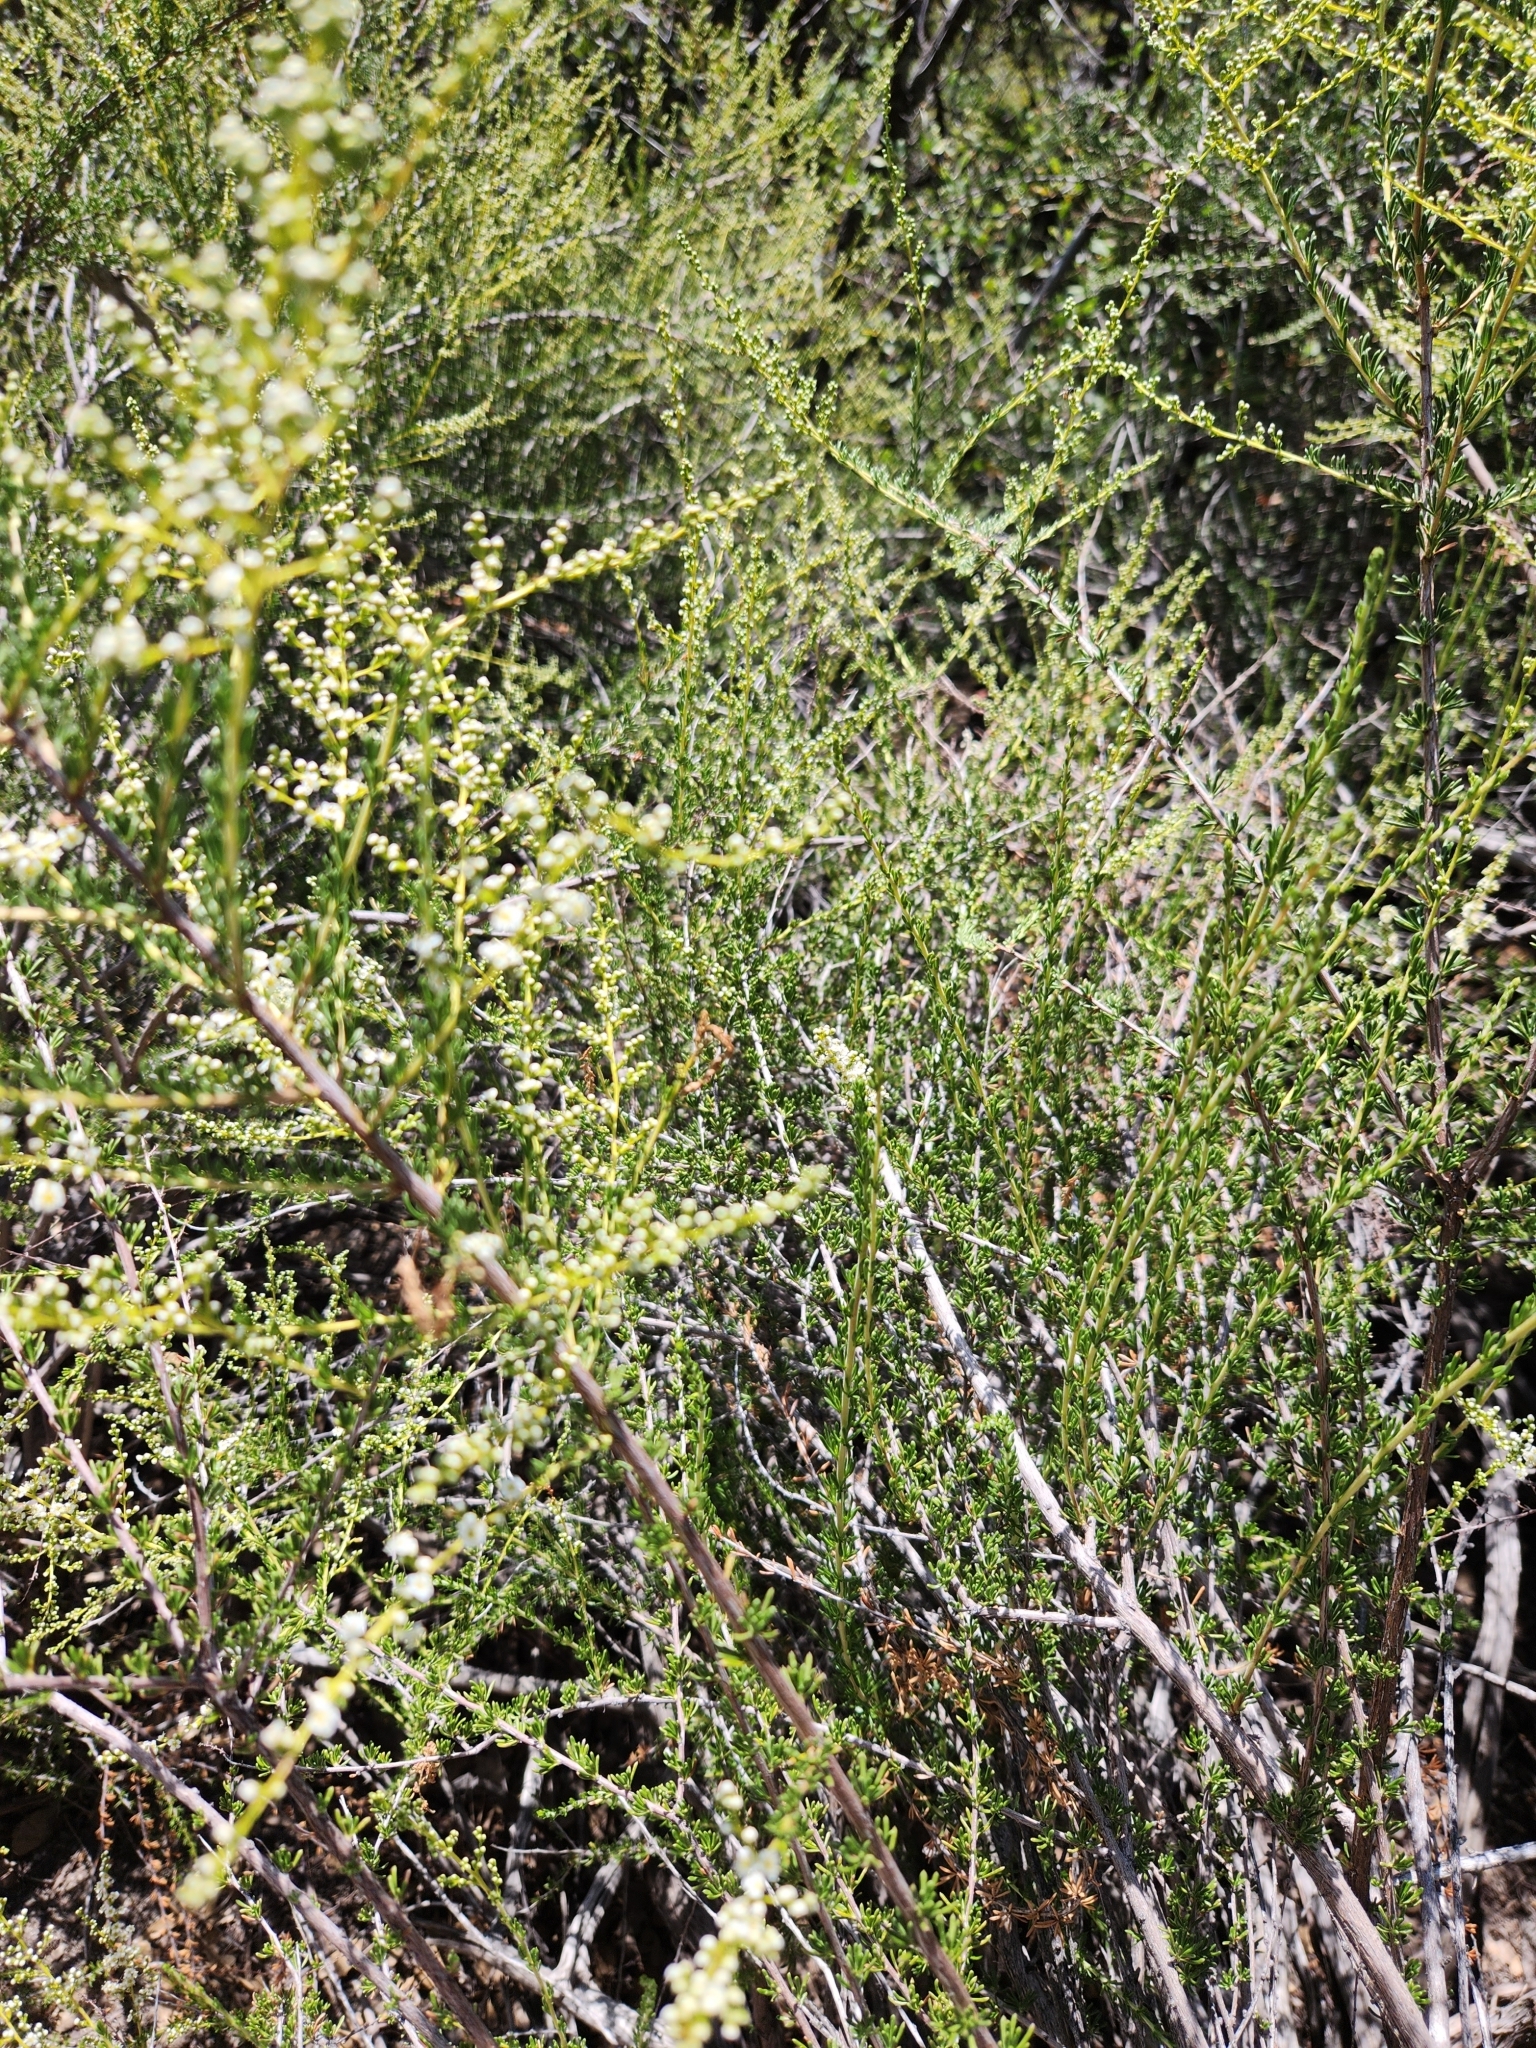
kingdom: Plantae
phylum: Tracheophyta
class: Magnoliopsida
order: Rosales
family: Rosaceae
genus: Adenostoma
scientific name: Adenostoma fasciculatum
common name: Chamise
